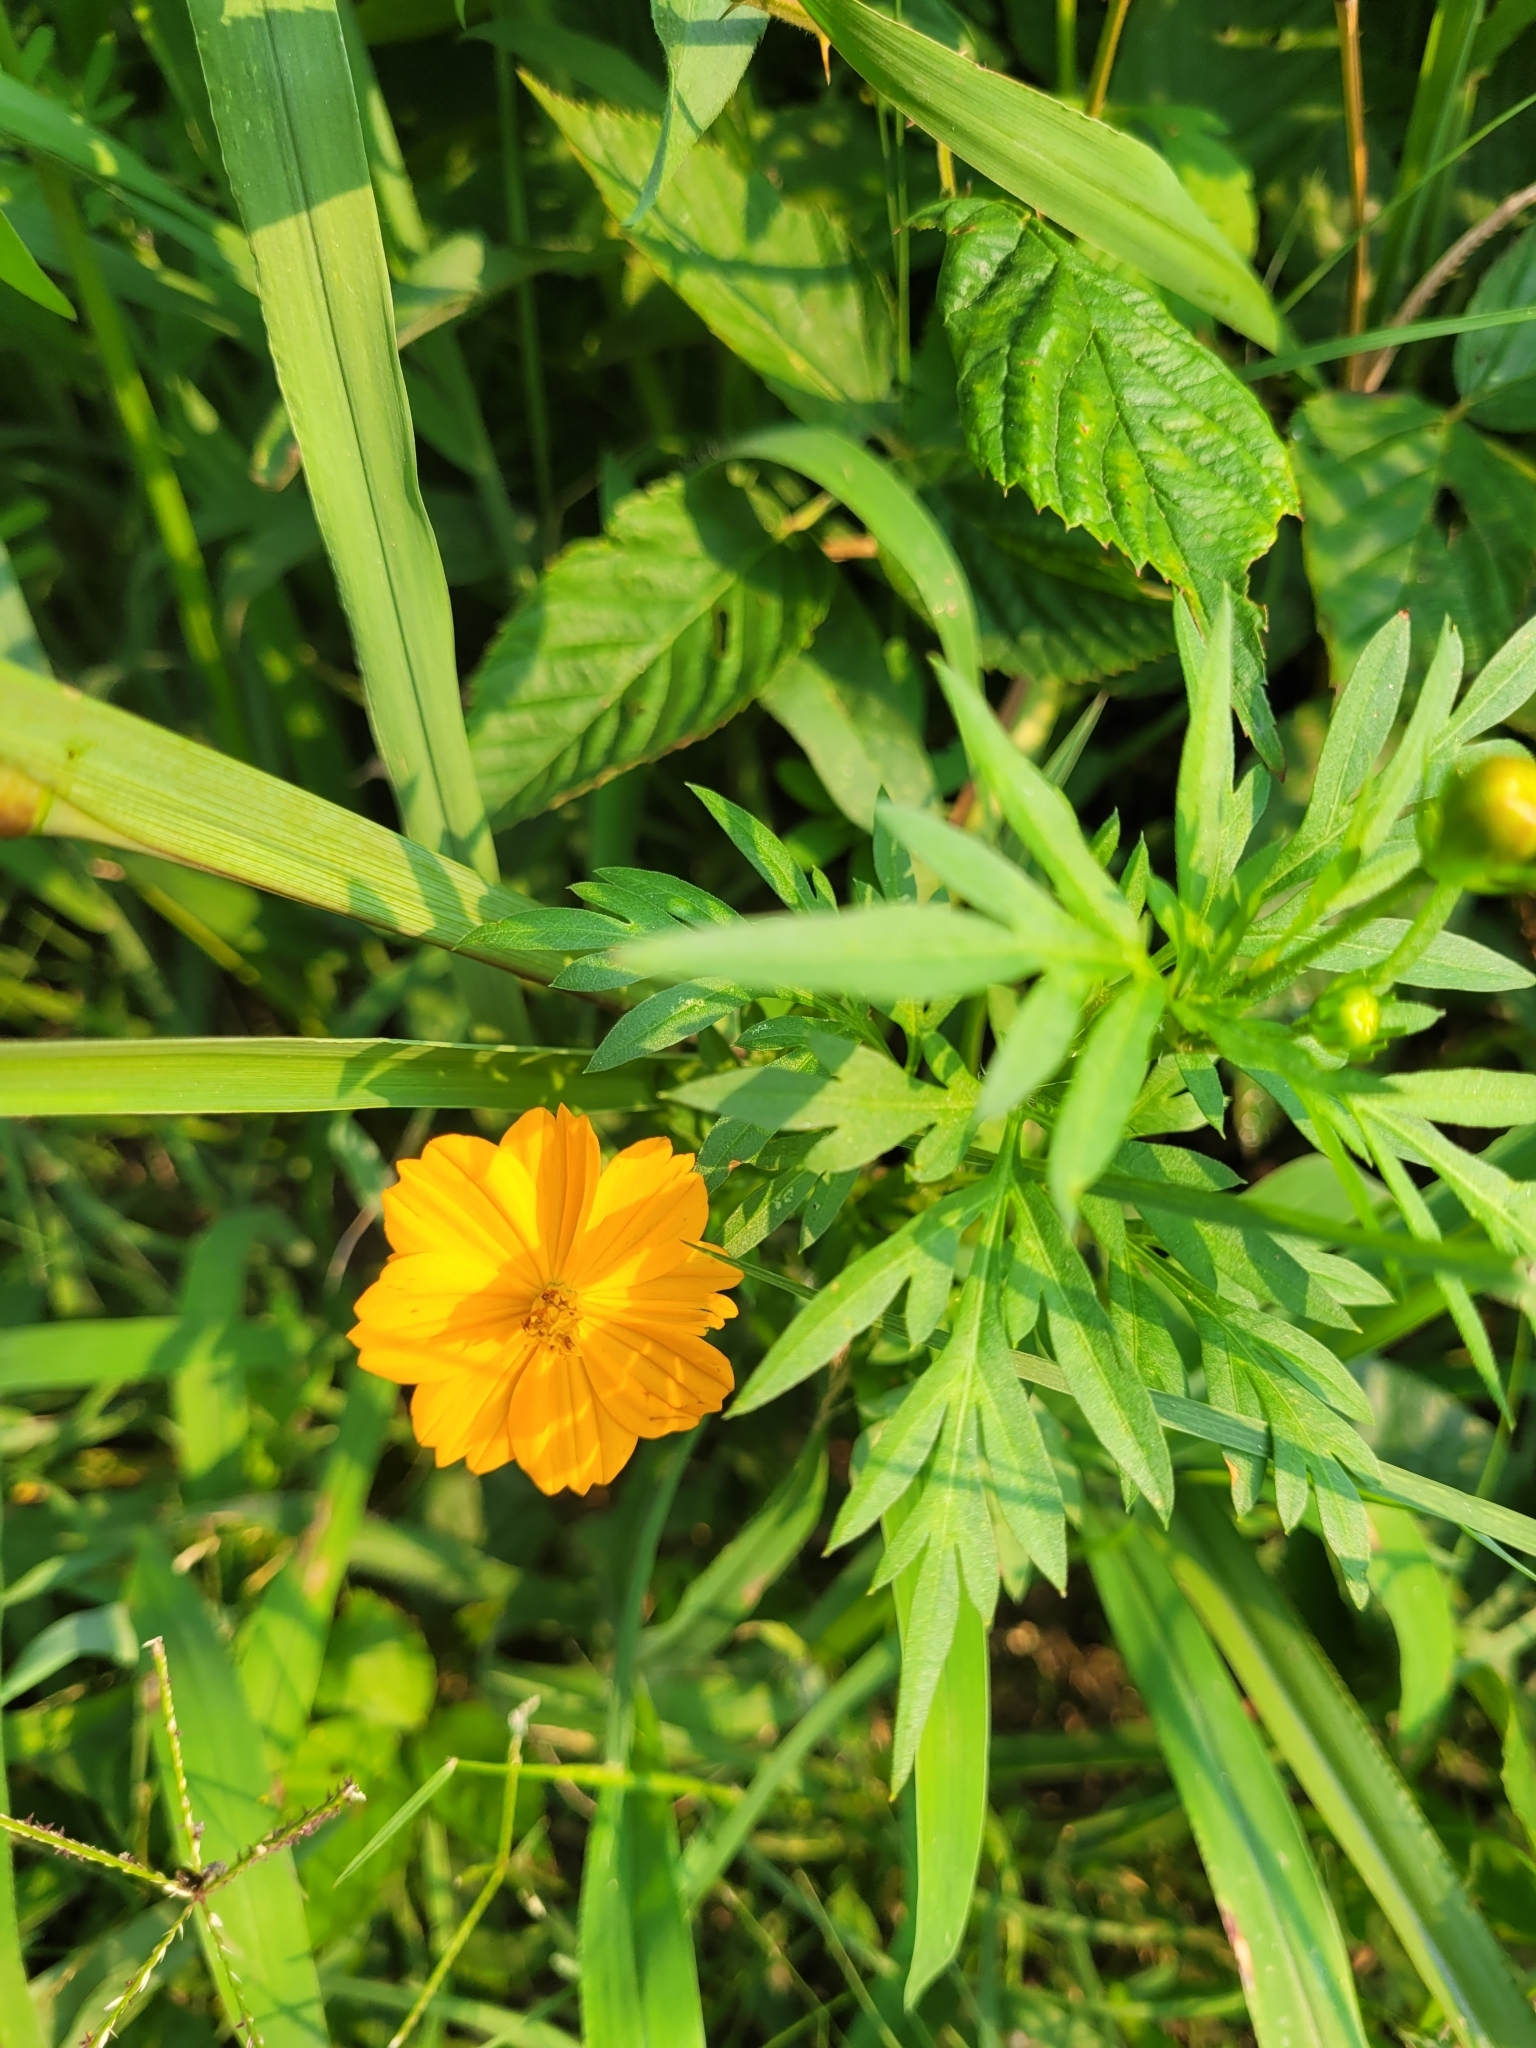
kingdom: Plantae
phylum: Tracheophyta
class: Magnoliopsida
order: Asterales
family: Asteraceae
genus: Cosmos
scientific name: Cosmos sulphureus
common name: Sulphur cosmos
